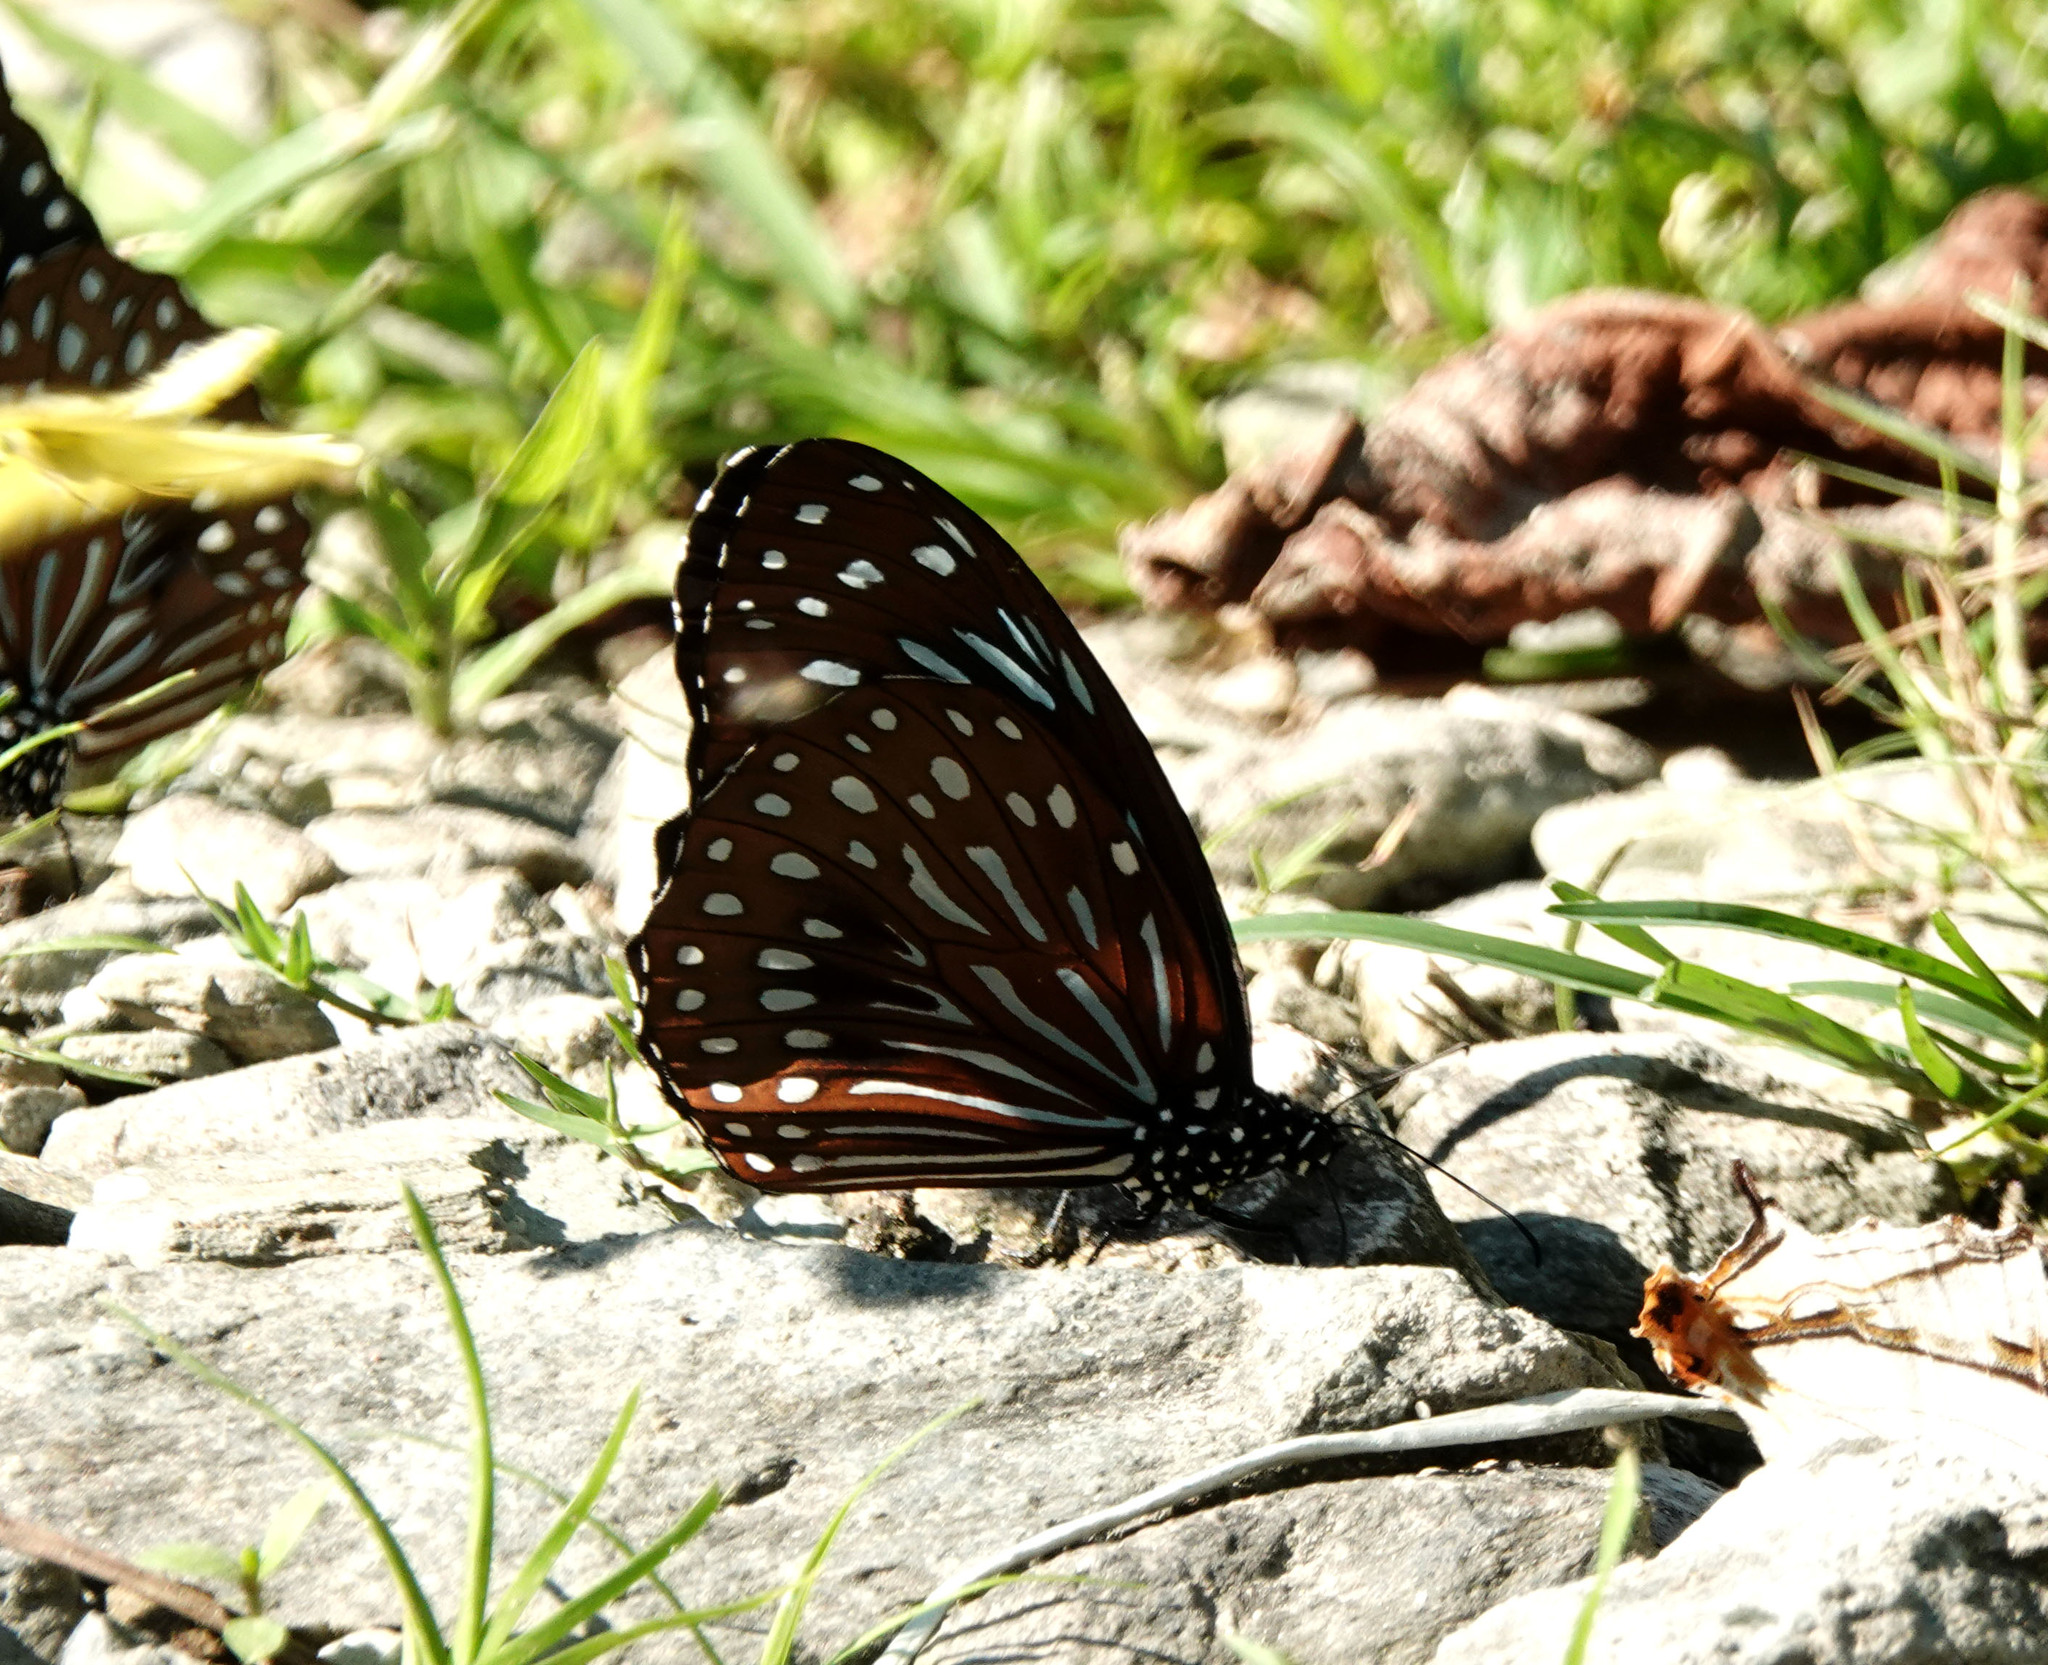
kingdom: Animalia
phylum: Arthropoda
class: Insecta
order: Lepidoptera
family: Nymphalidae
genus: Tirumala
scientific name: Tirumala septentrionis
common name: Dark blue tiger butterfly
